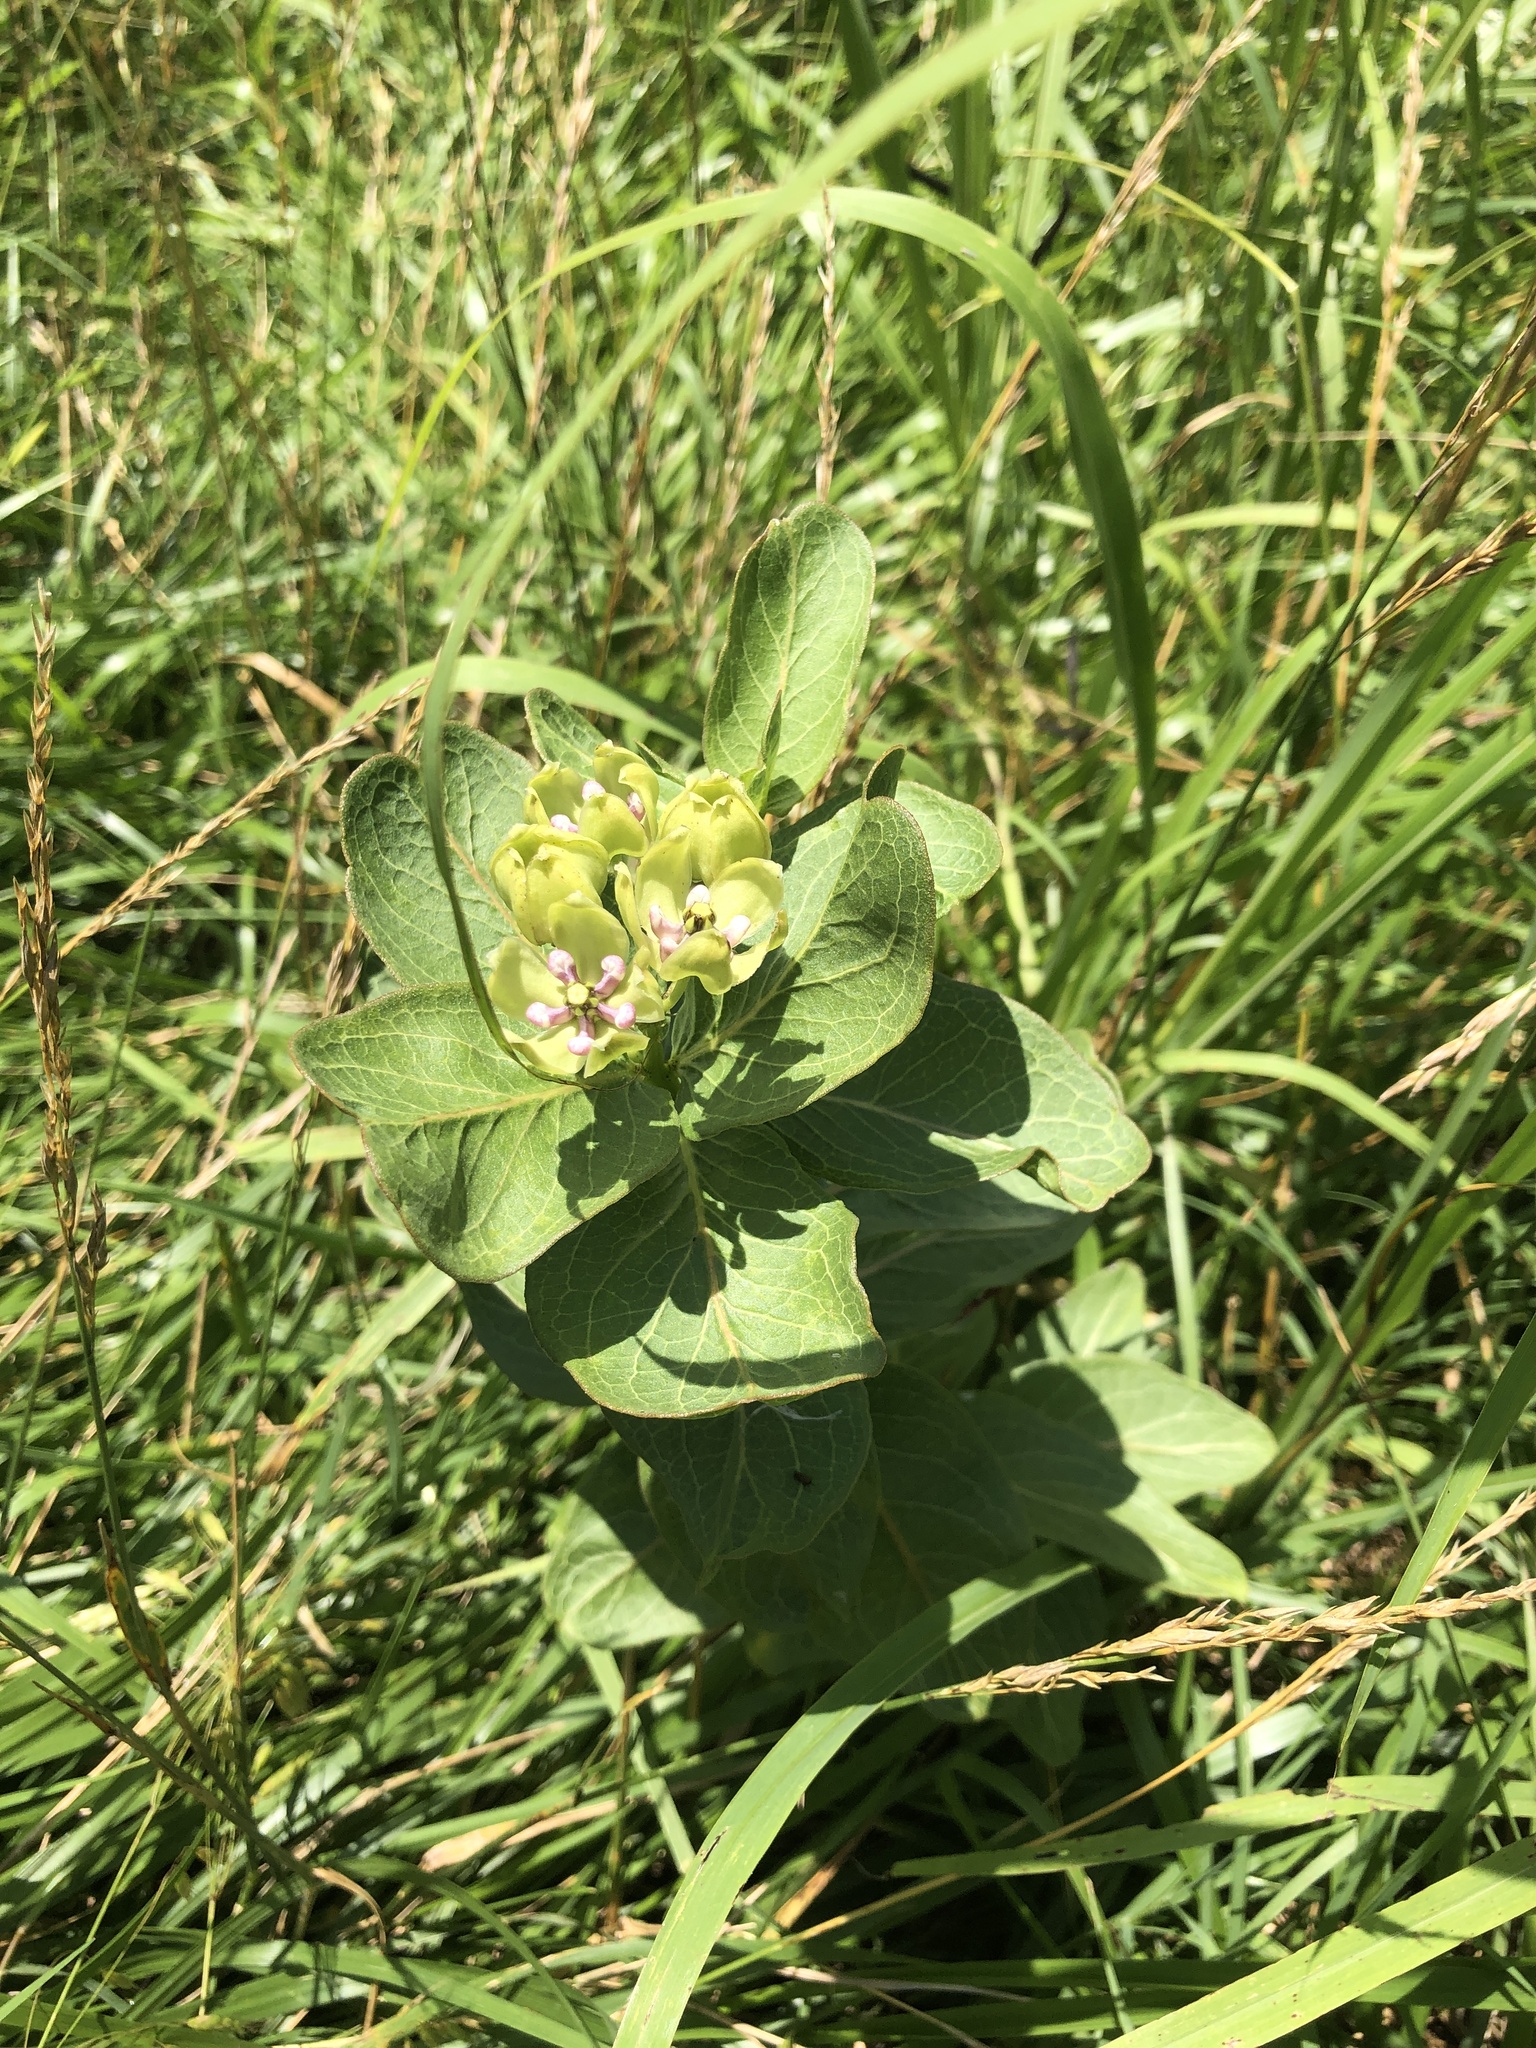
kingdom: Plantae
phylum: Tracheophyta
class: Magnoliopsida
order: Gentianales
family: Apocynaceae
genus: Asclepias
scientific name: Asclepias viridis
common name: Antelope-horns
